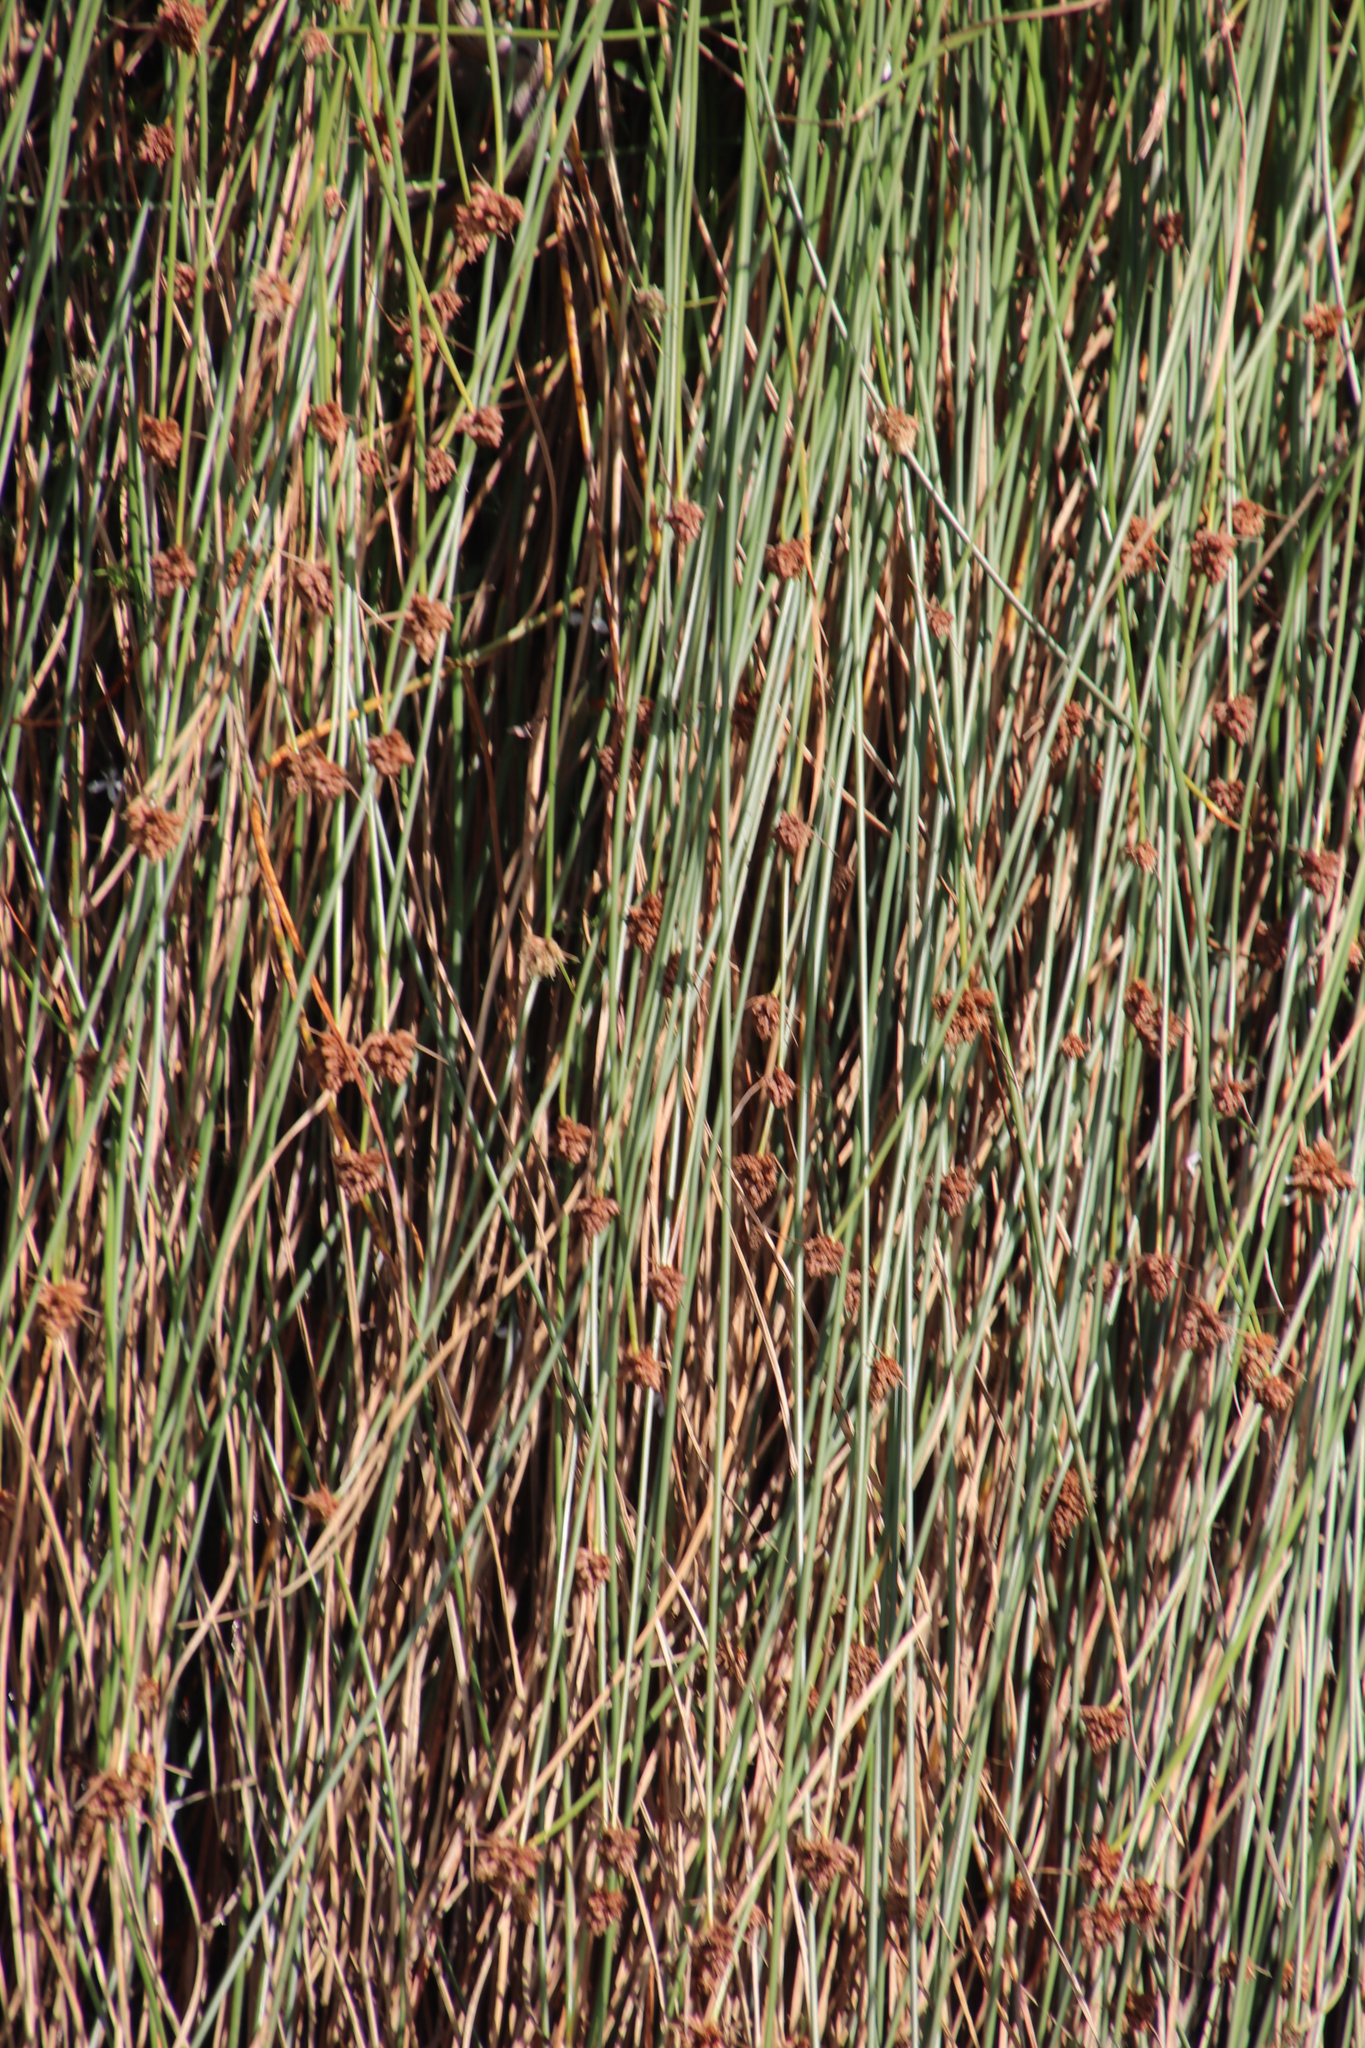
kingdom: Plantae
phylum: Tracheophyta
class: Liliopsida
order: Poales
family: Cyperaceae
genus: Ficinia
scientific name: Ficinia brevifolia
